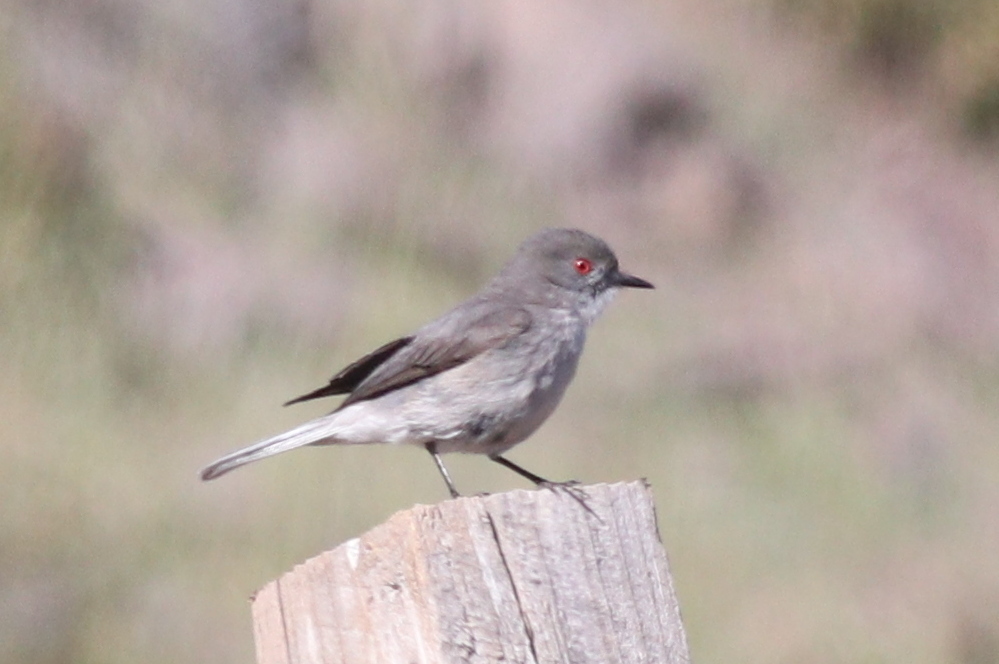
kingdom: Animalia
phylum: Chordata
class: Aves
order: Passeriformes
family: Tyrannidae
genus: Xolmis
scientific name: Xolmis pyrope
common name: Fire-eyed diucon
